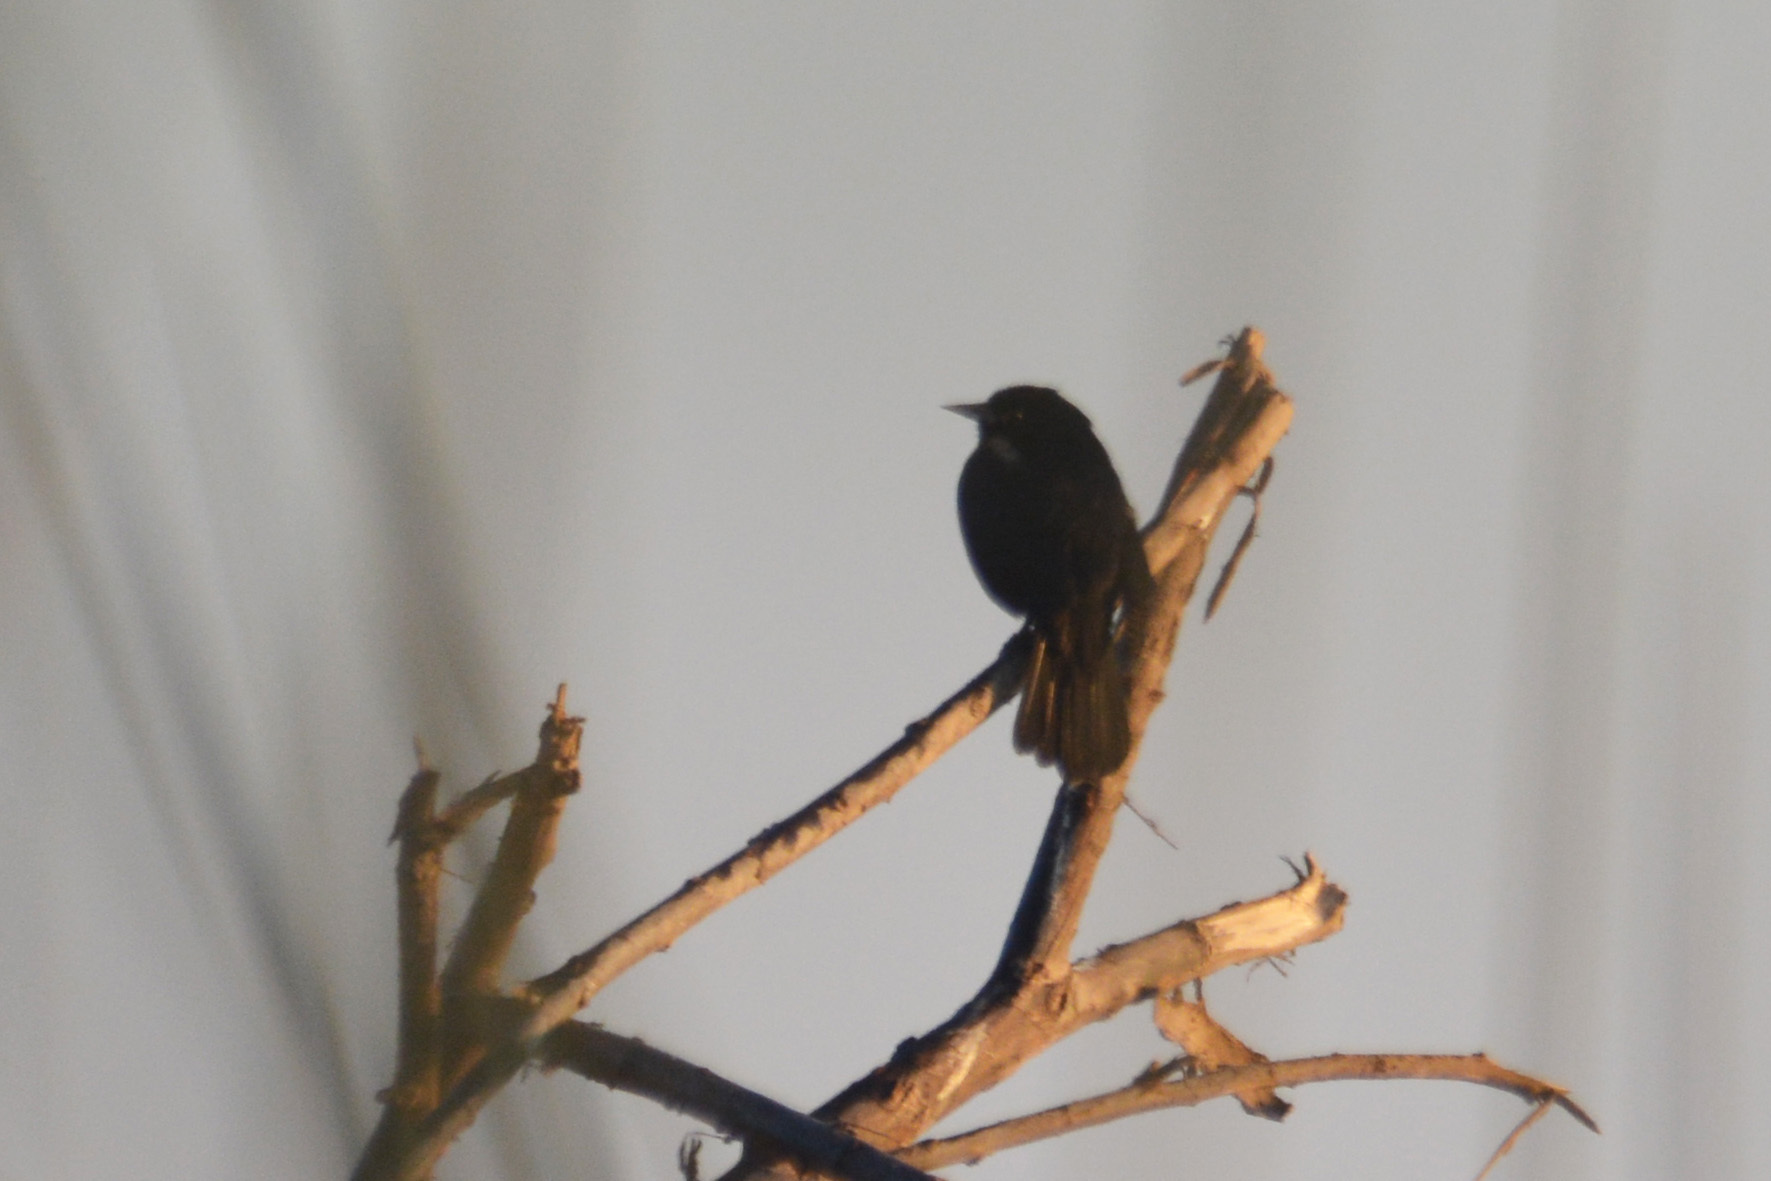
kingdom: Animalia
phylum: Chordata
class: Aves
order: Passeriformes
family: Icteridae
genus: Icterus
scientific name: Icterus cayanensis
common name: Epaulet oriole
